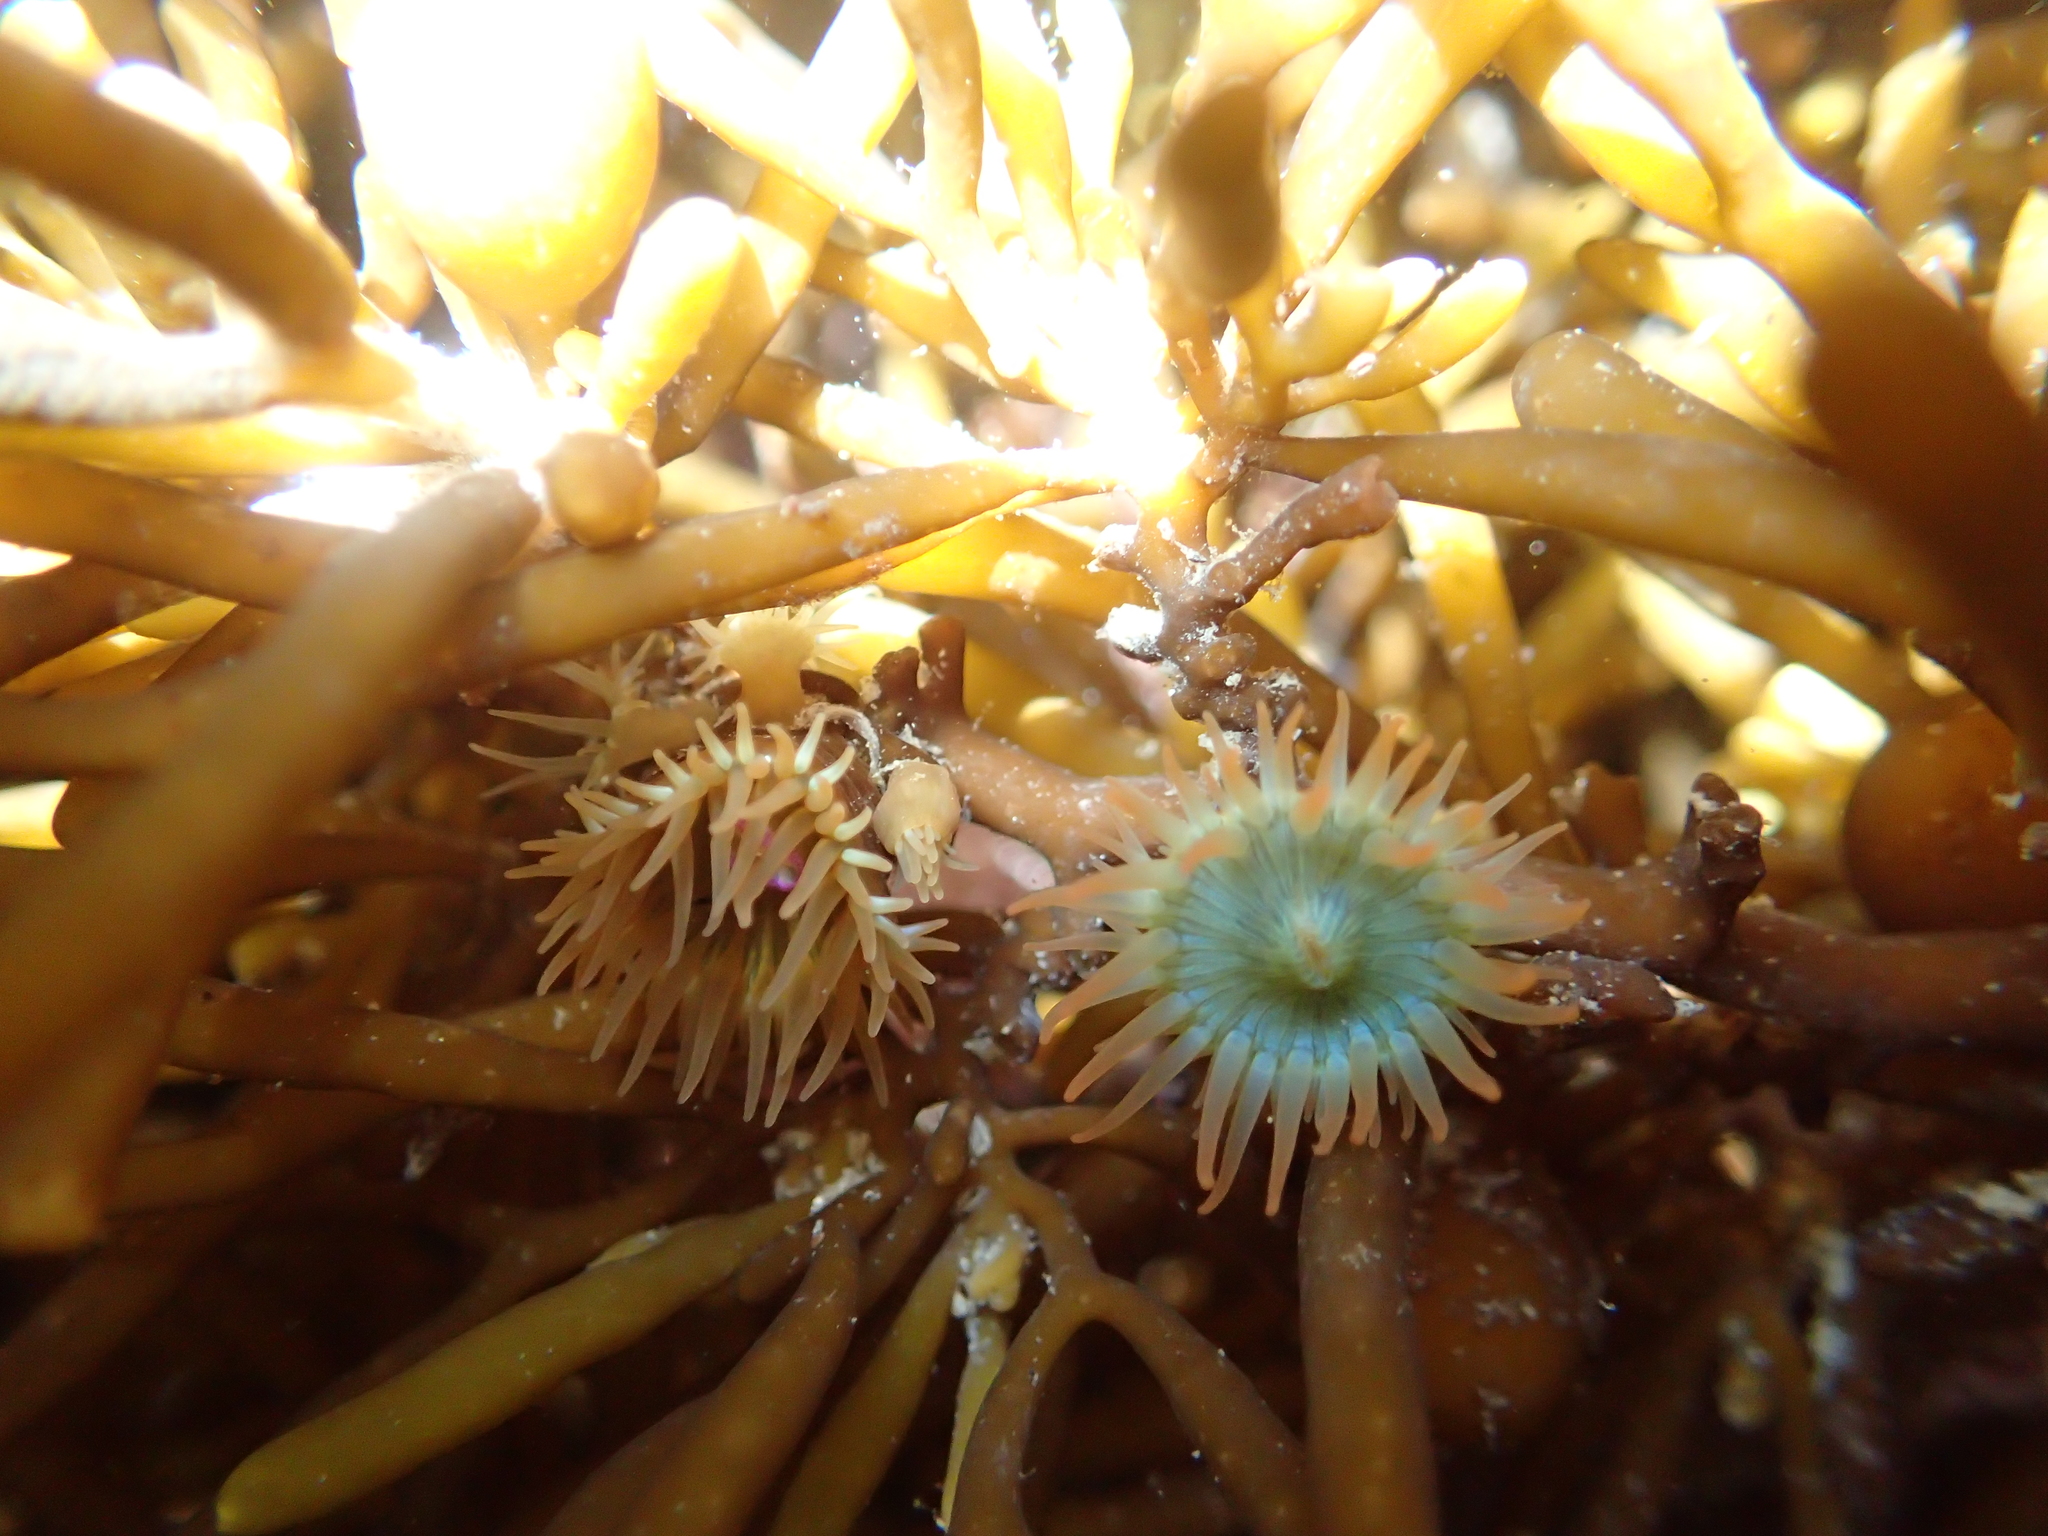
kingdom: Animalia
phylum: Cnidaria
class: Anthozoa
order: Actiniaria
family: Hormathiidae
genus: Handactis
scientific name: Handactis nutrix
